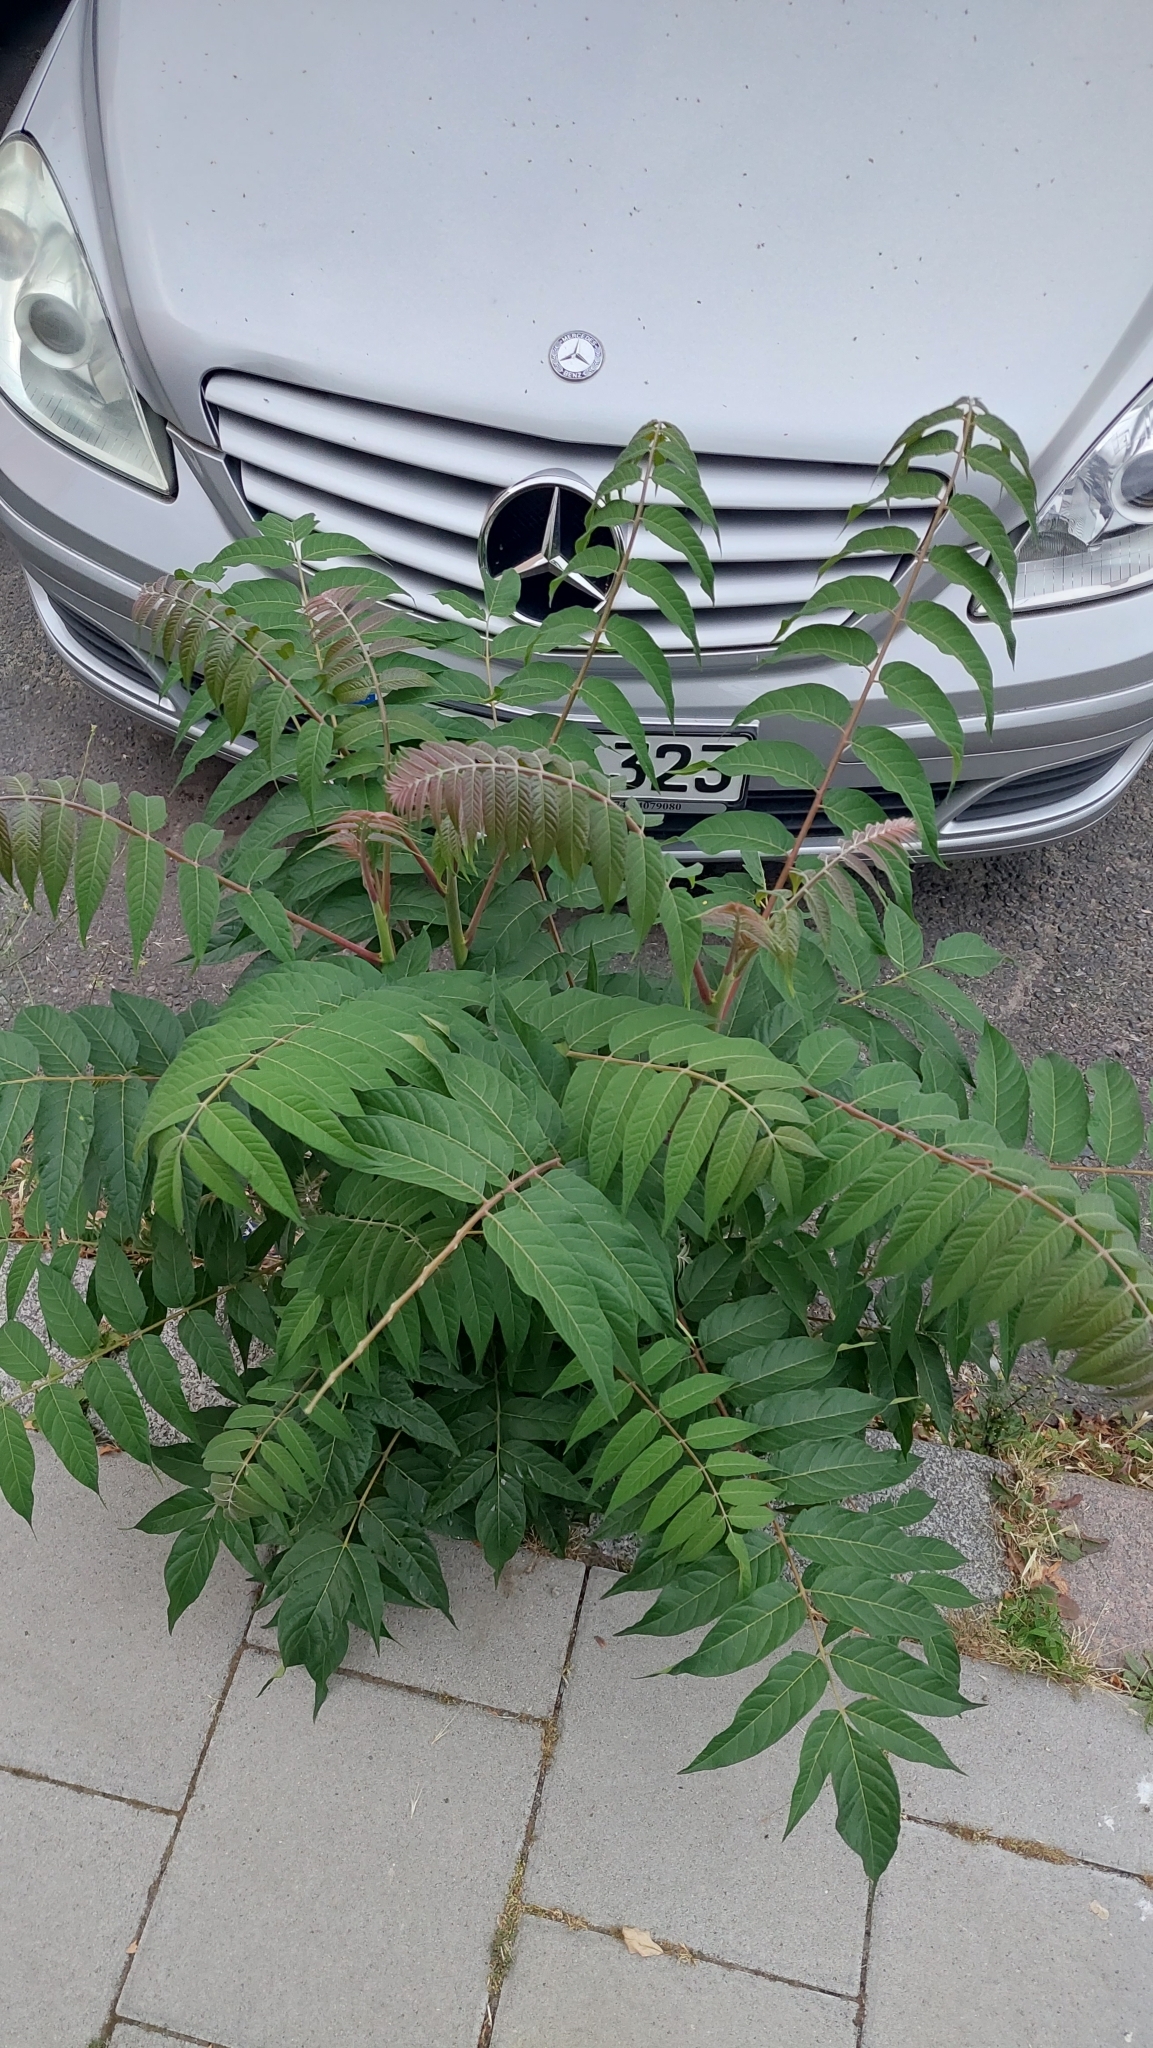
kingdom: Plantae
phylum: Tracheophyta
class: Magnoliopsida
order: Sapindales
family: Simaroubaceae
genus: Ailanthus
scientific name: Ailanthus altissima
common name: Tree-of-heaven
